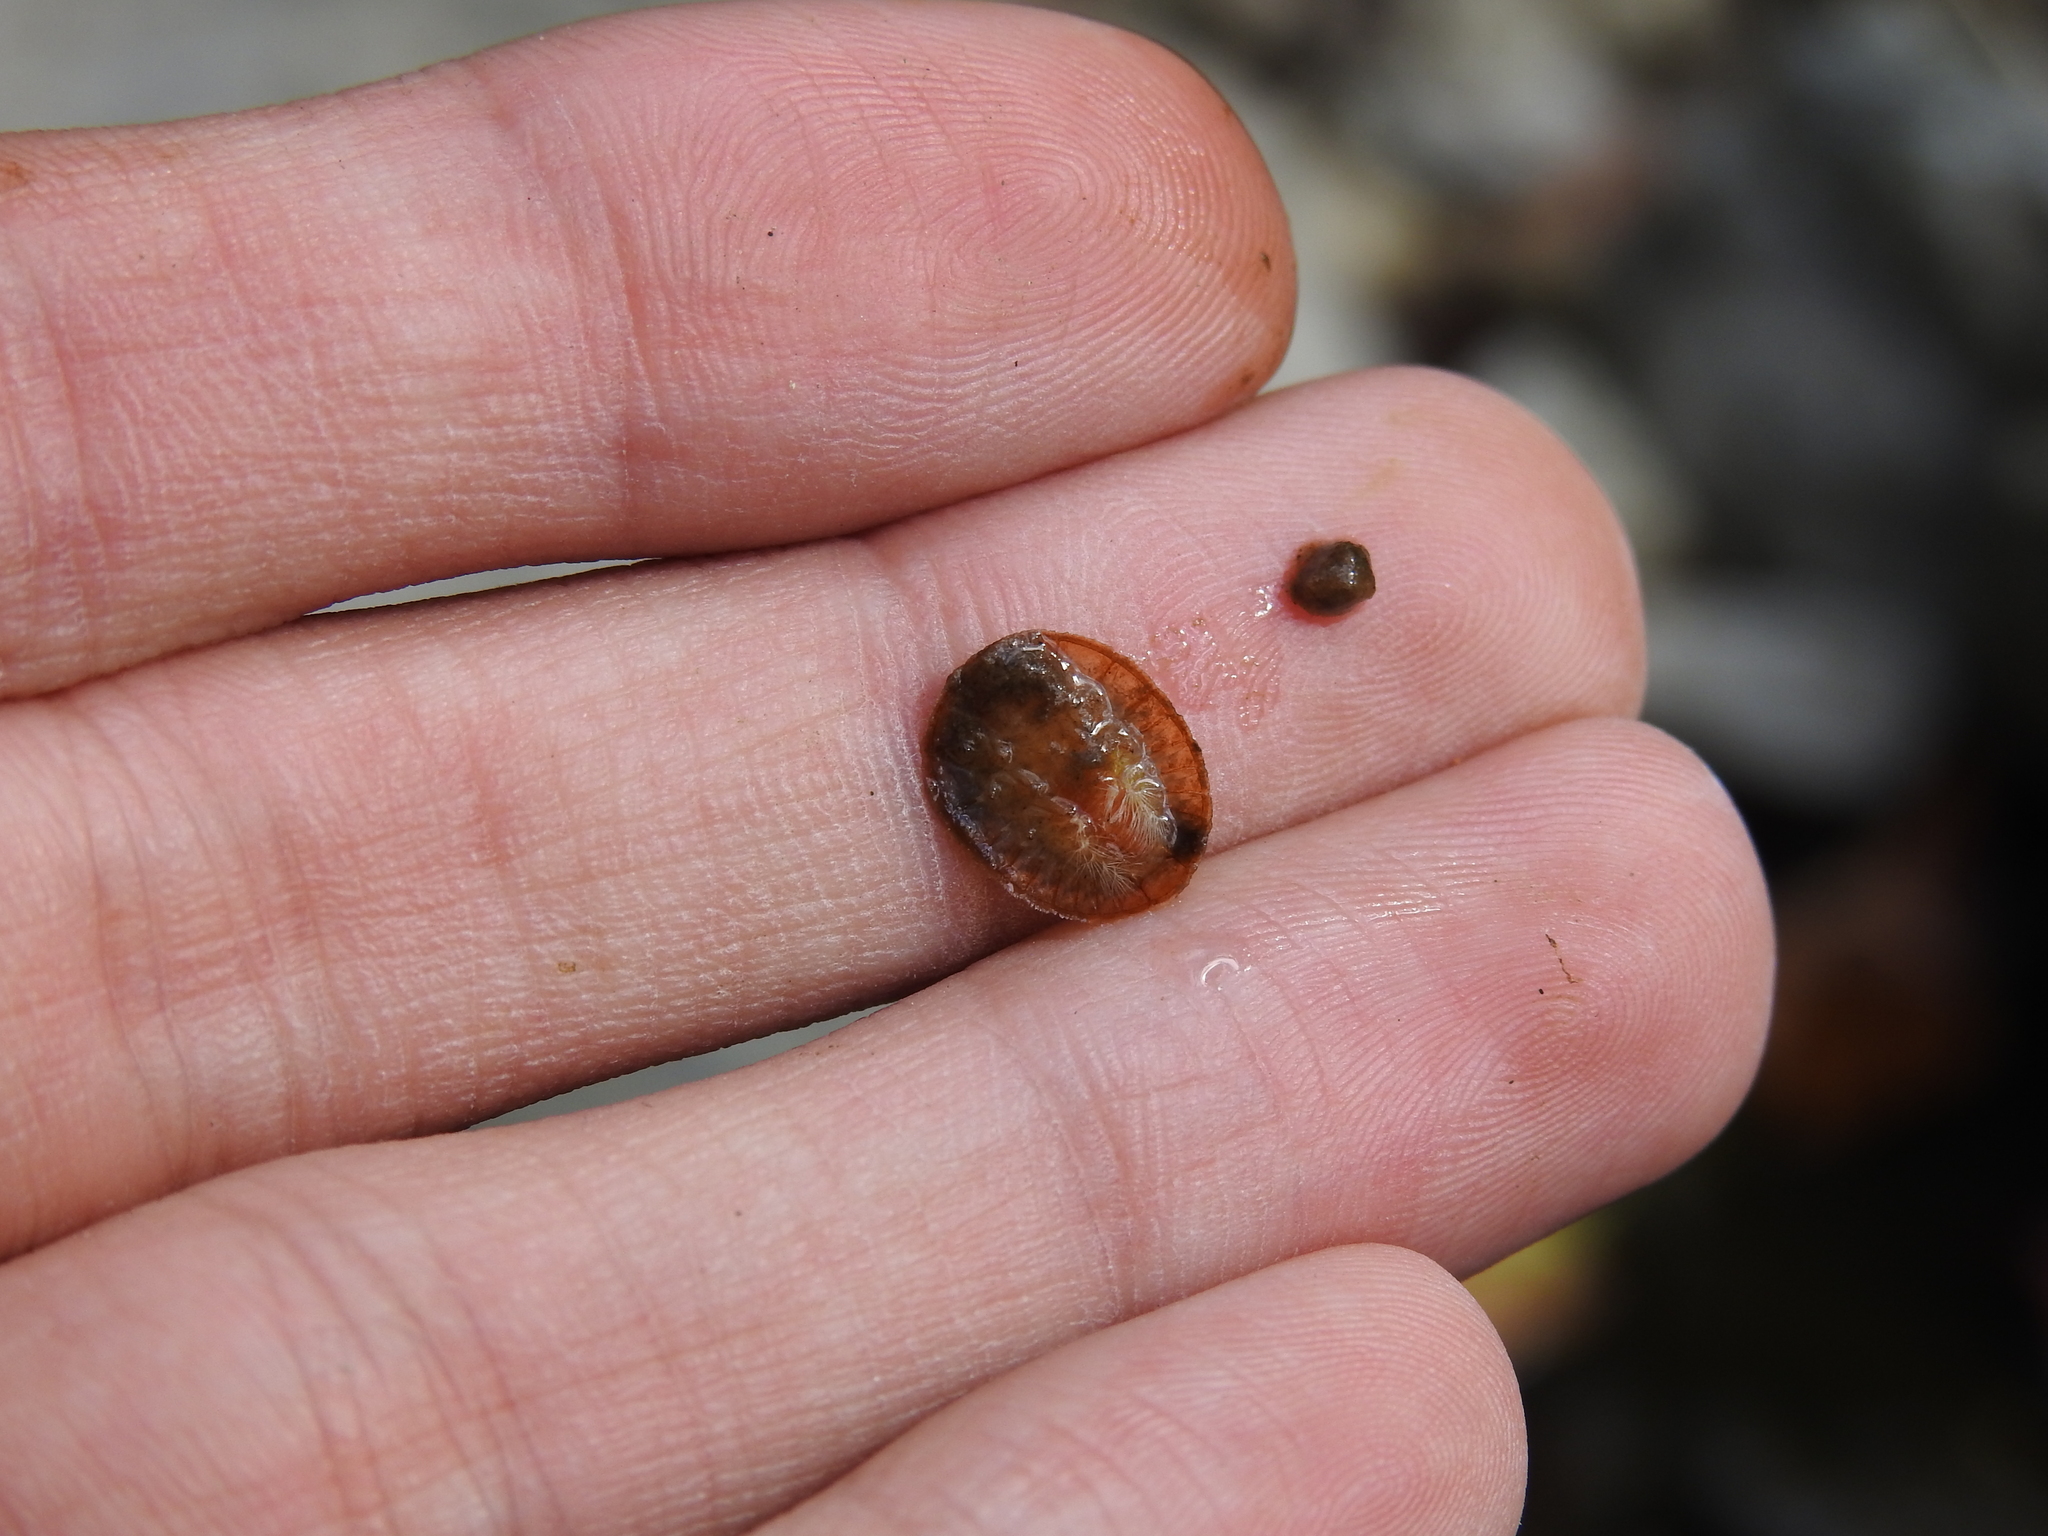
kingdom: Animalia
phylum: Arthropoda
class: Insecta
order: Coleoptera
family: Psephenidae
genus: Psephenus
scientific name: Psephenus herricki
